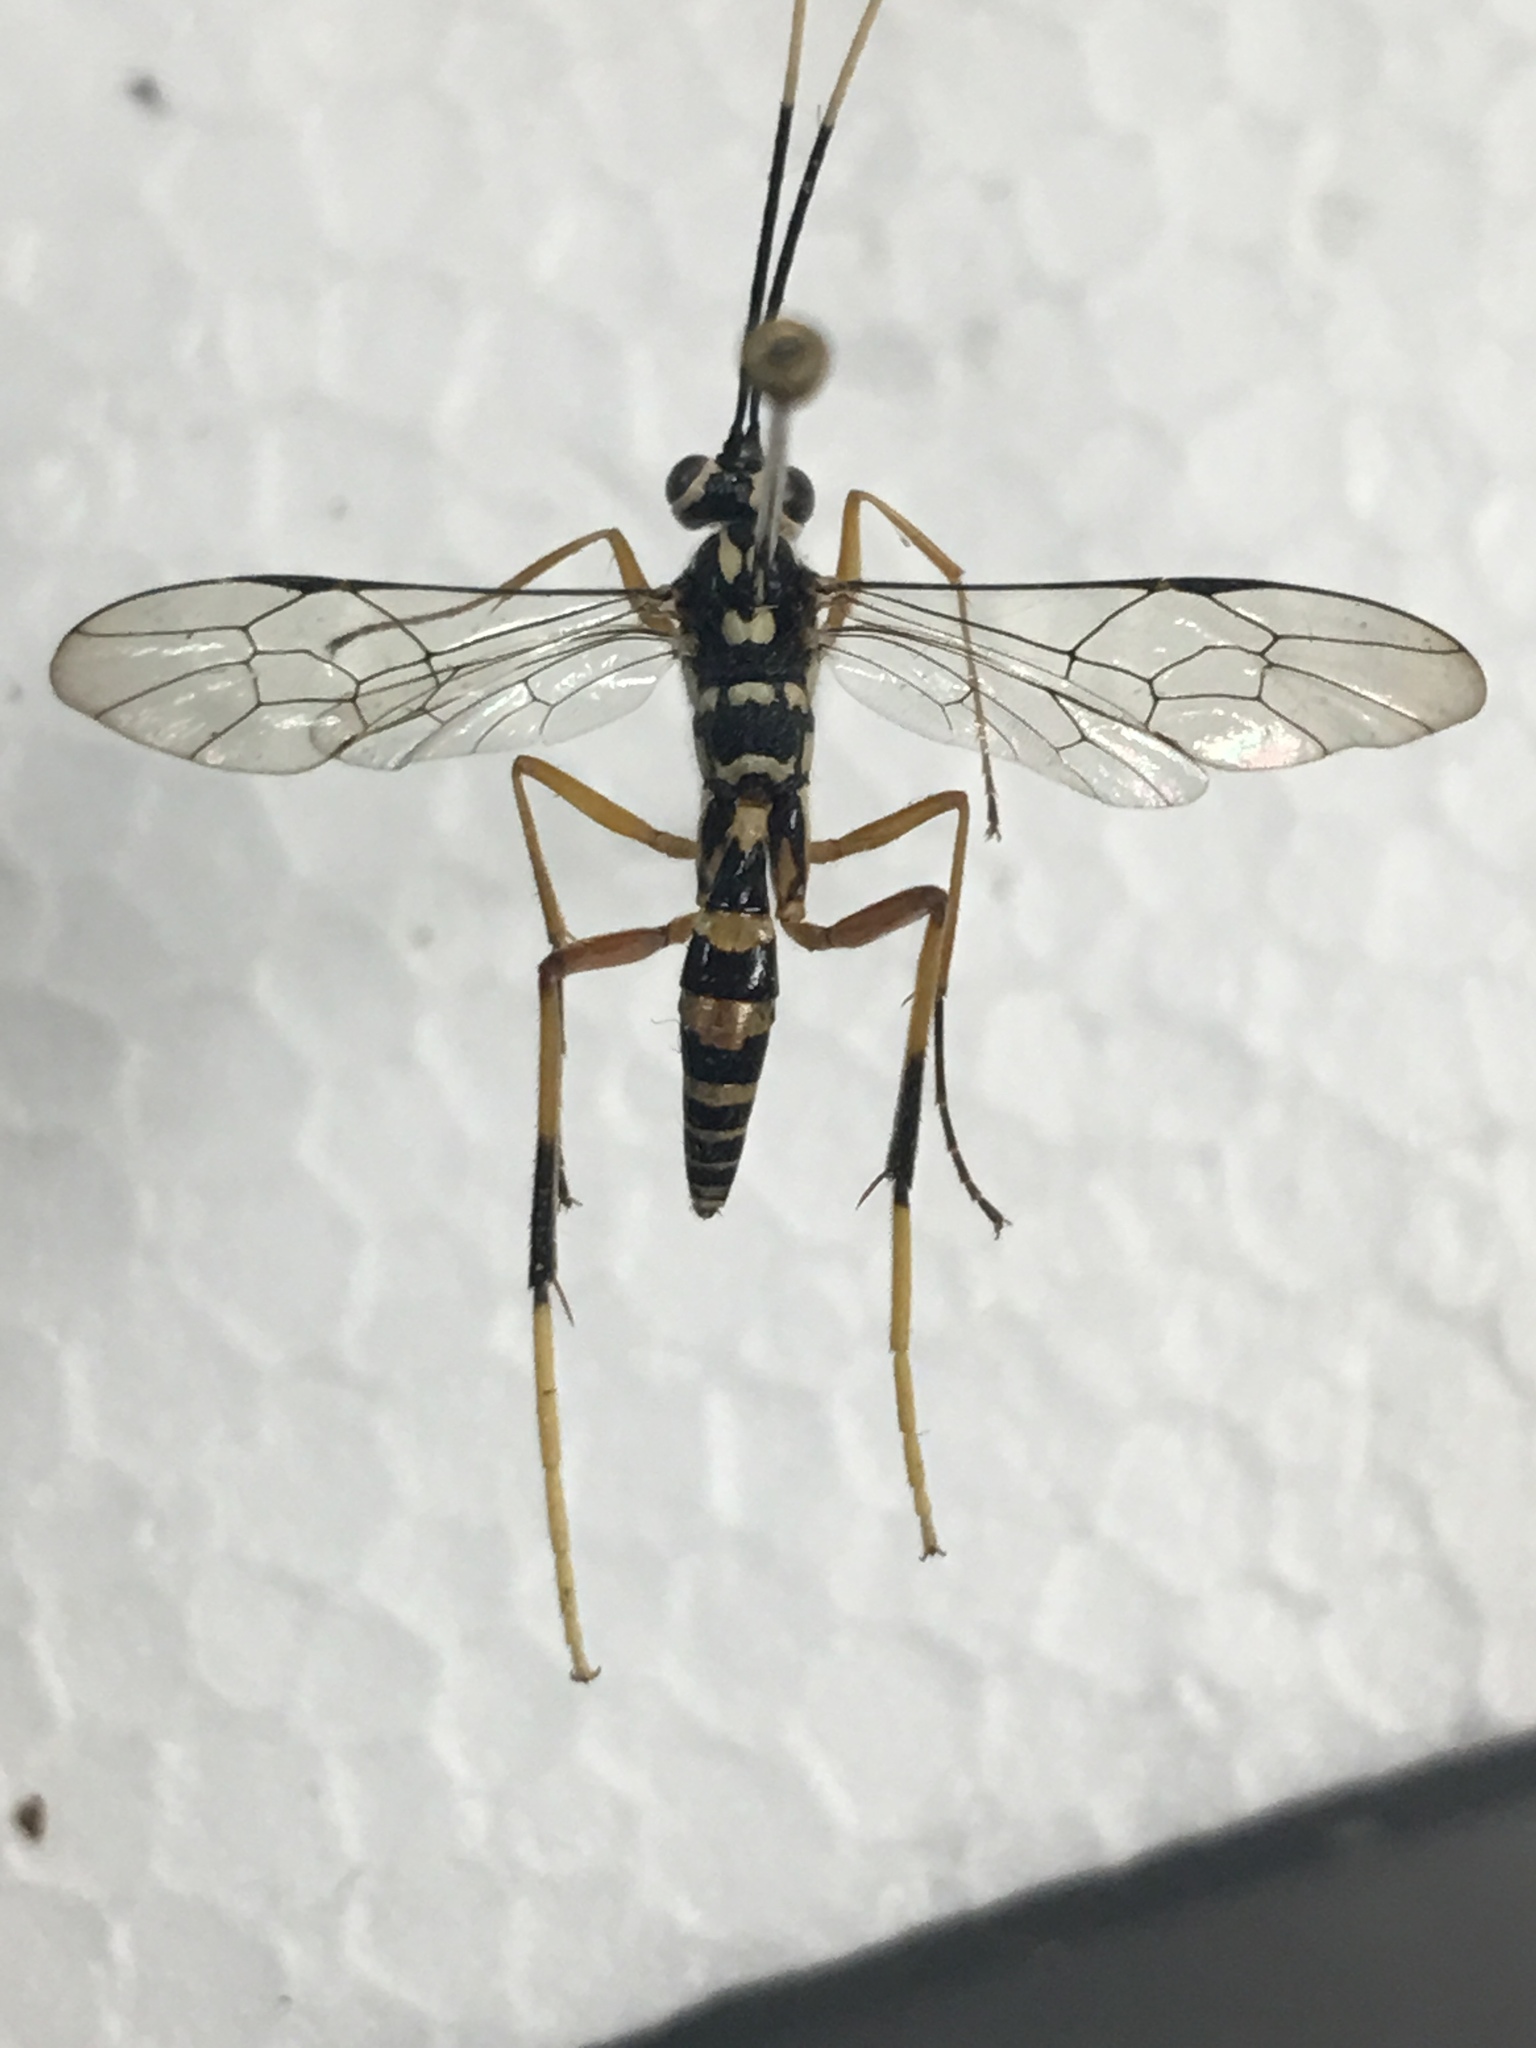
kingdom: Animalia
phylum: Arthropoda
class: Insecta
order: Hymenoptera
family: Ichneumonidae
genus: Diradops
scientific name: Diradops bethunei
